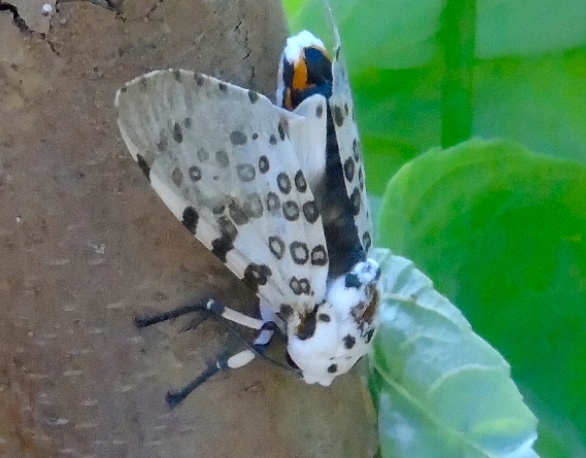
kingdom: Animalia
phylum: Arthropoda
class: Insecta
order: Lepidoptera
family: Erebidae
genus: Hypercompe
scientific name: Hypercompe
